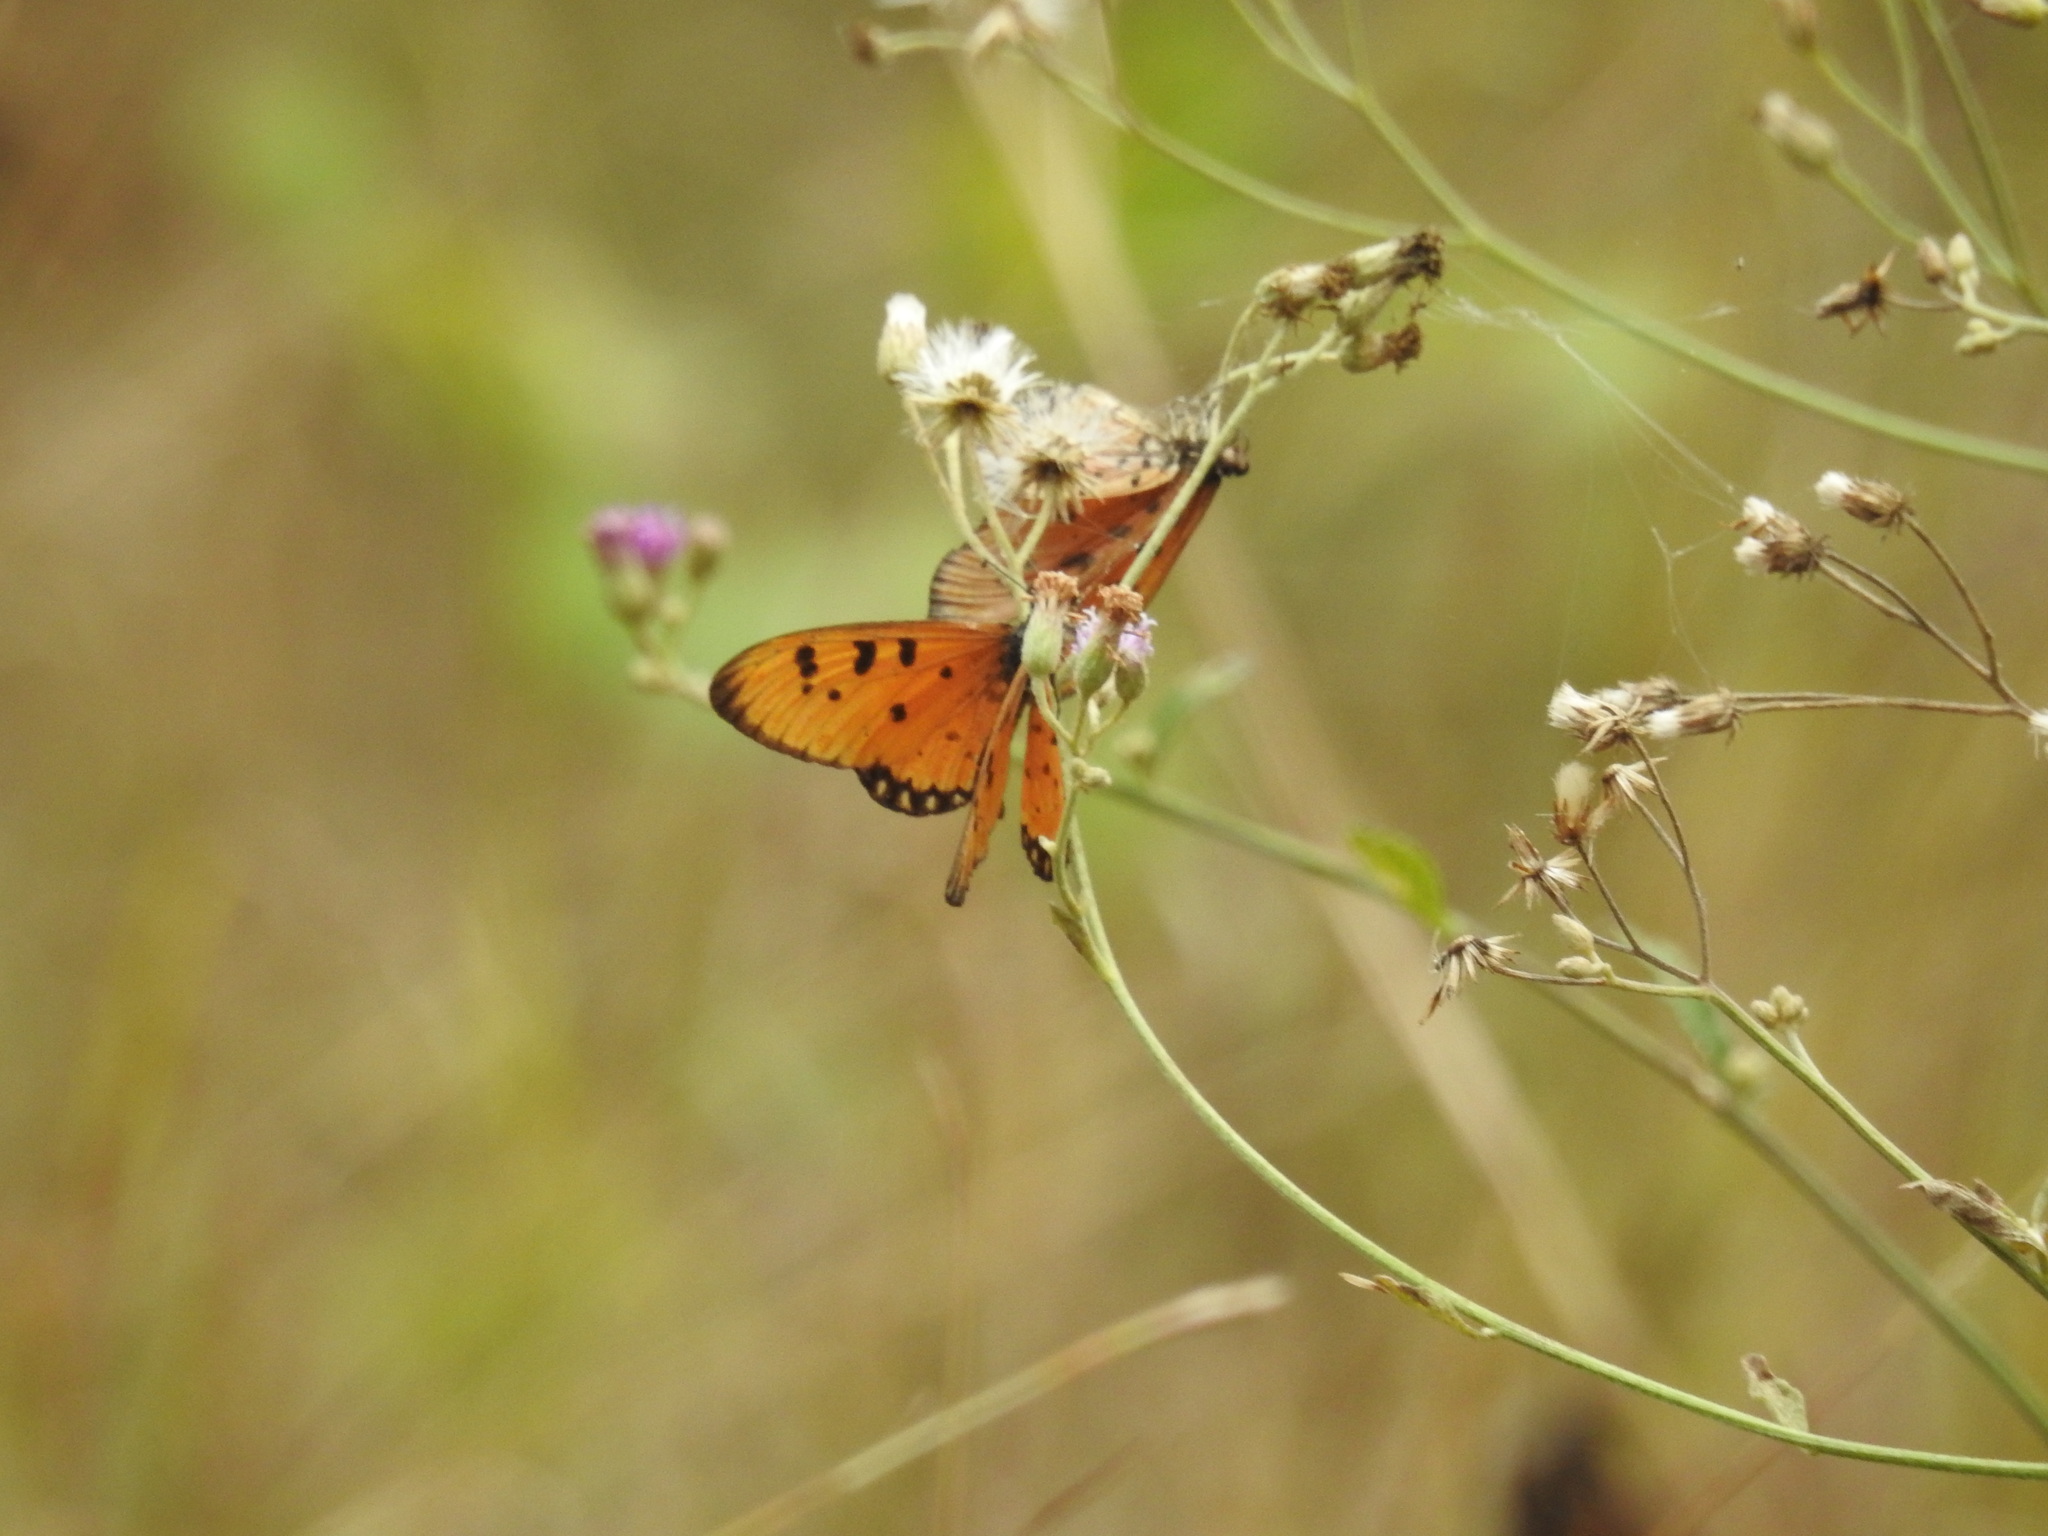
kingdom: Animalia
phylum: Arthropoda
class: Insecta
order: Lepidoptera
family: Nymphalidae
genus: Acraea
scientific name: Acraea terpsicore
